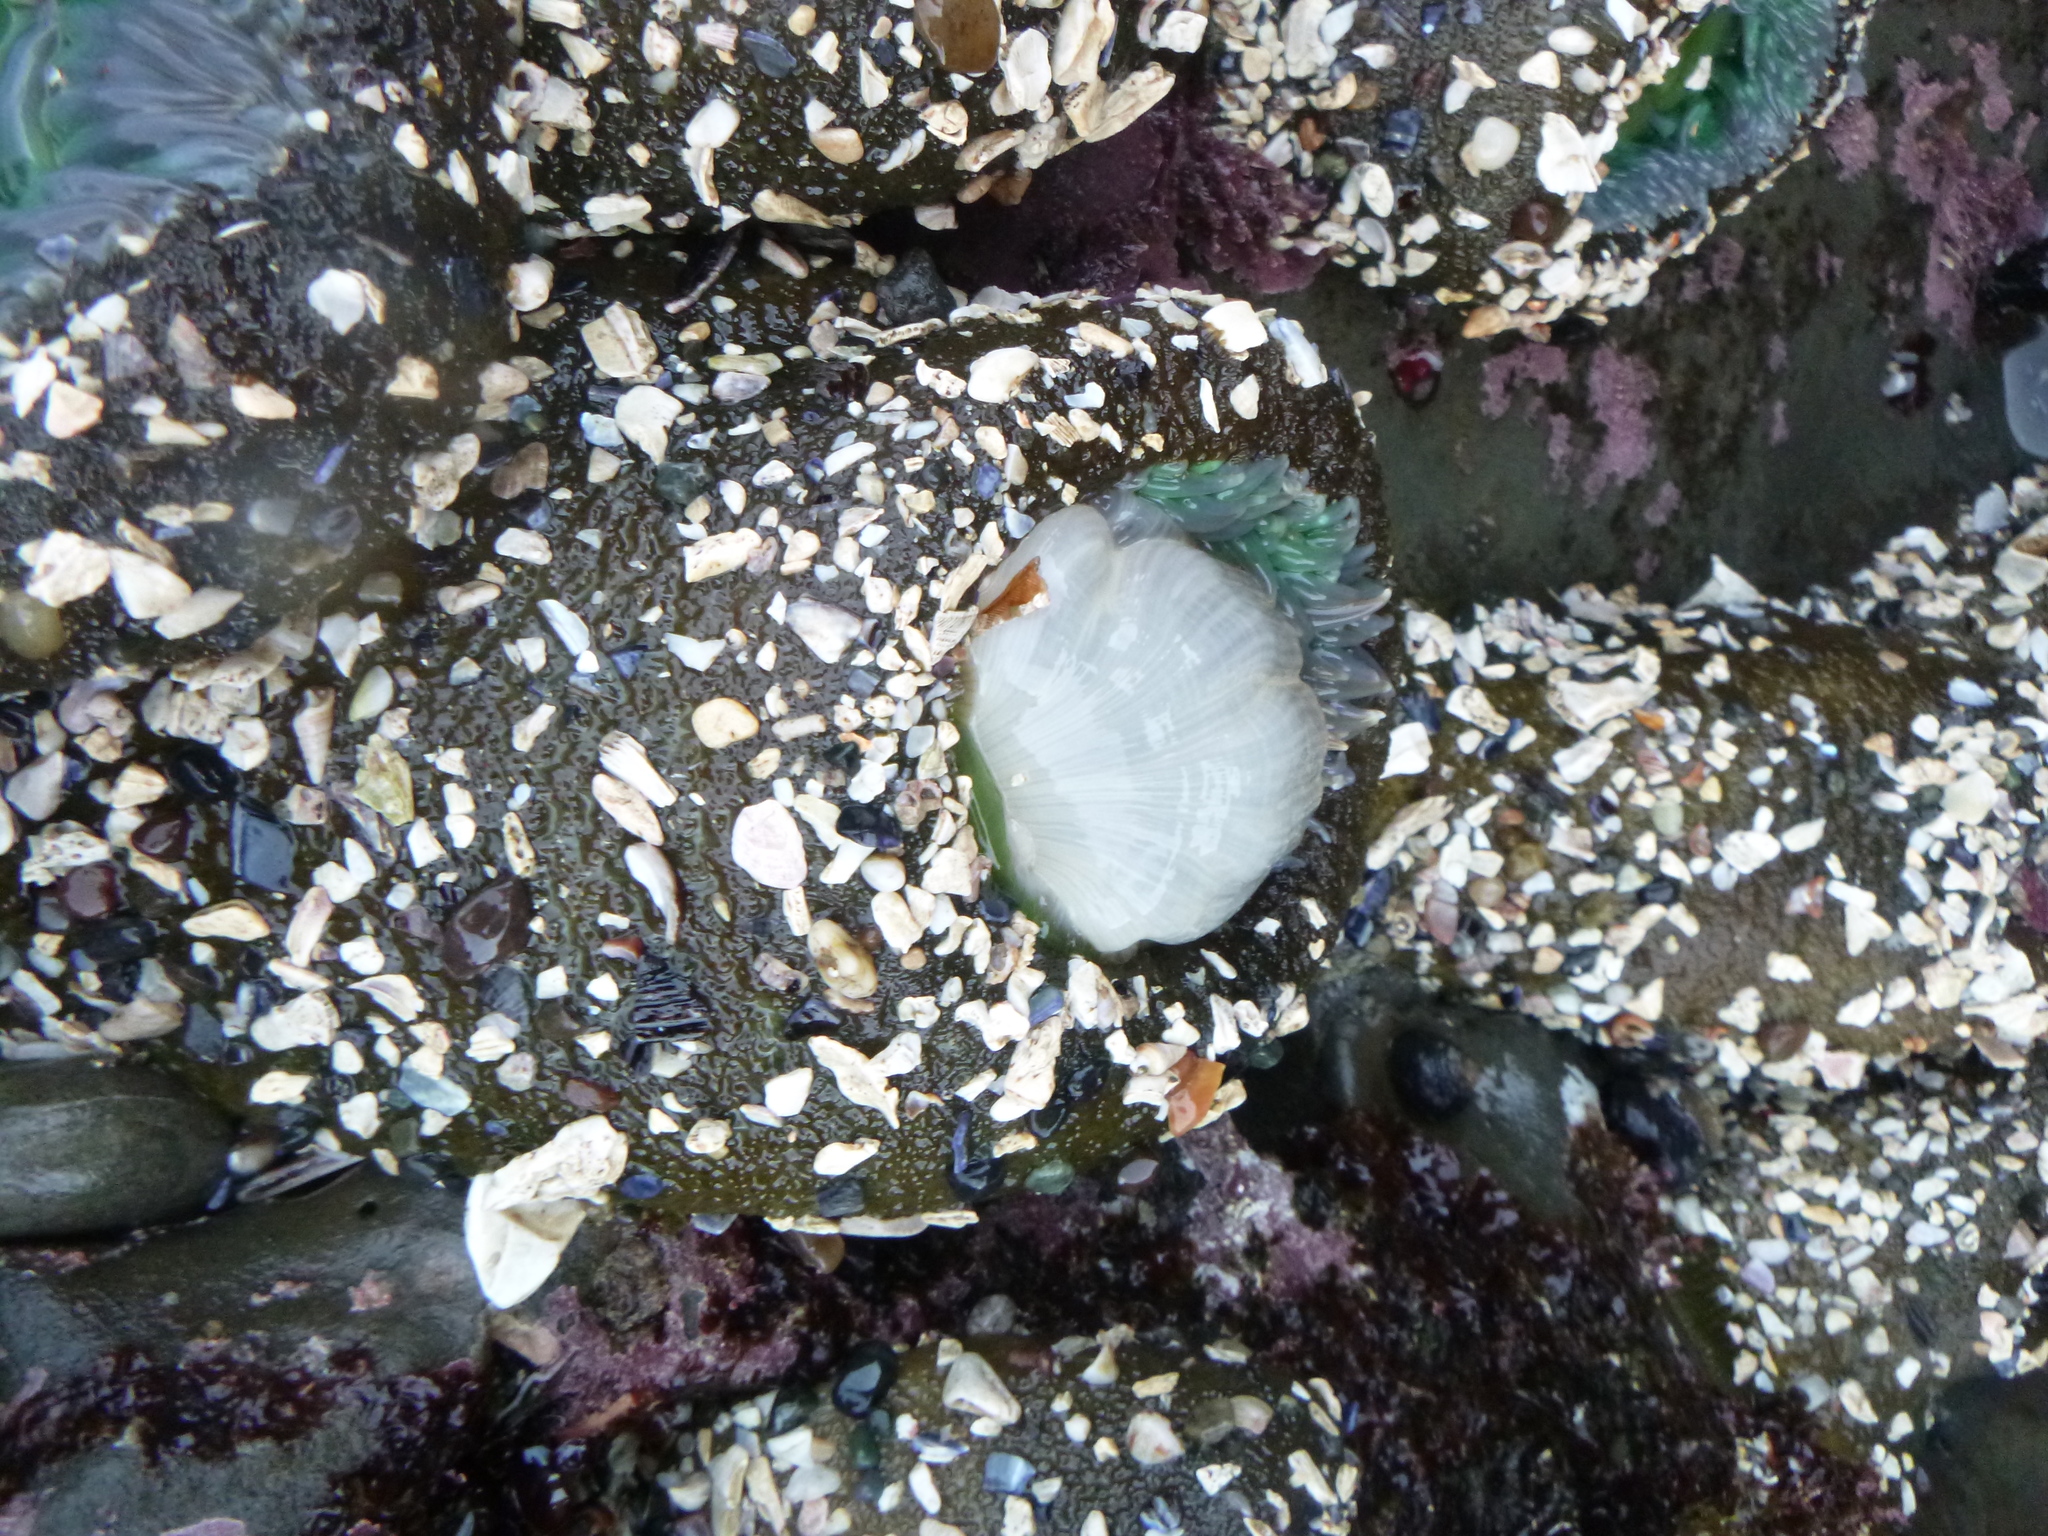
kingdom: Animalia
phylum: Cnidaria
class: Anthozoa
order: Actiniaria
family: Actiniidae
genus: Anthopleura
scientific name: Anthopleura xanthogrammica
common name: Giant green anemone
